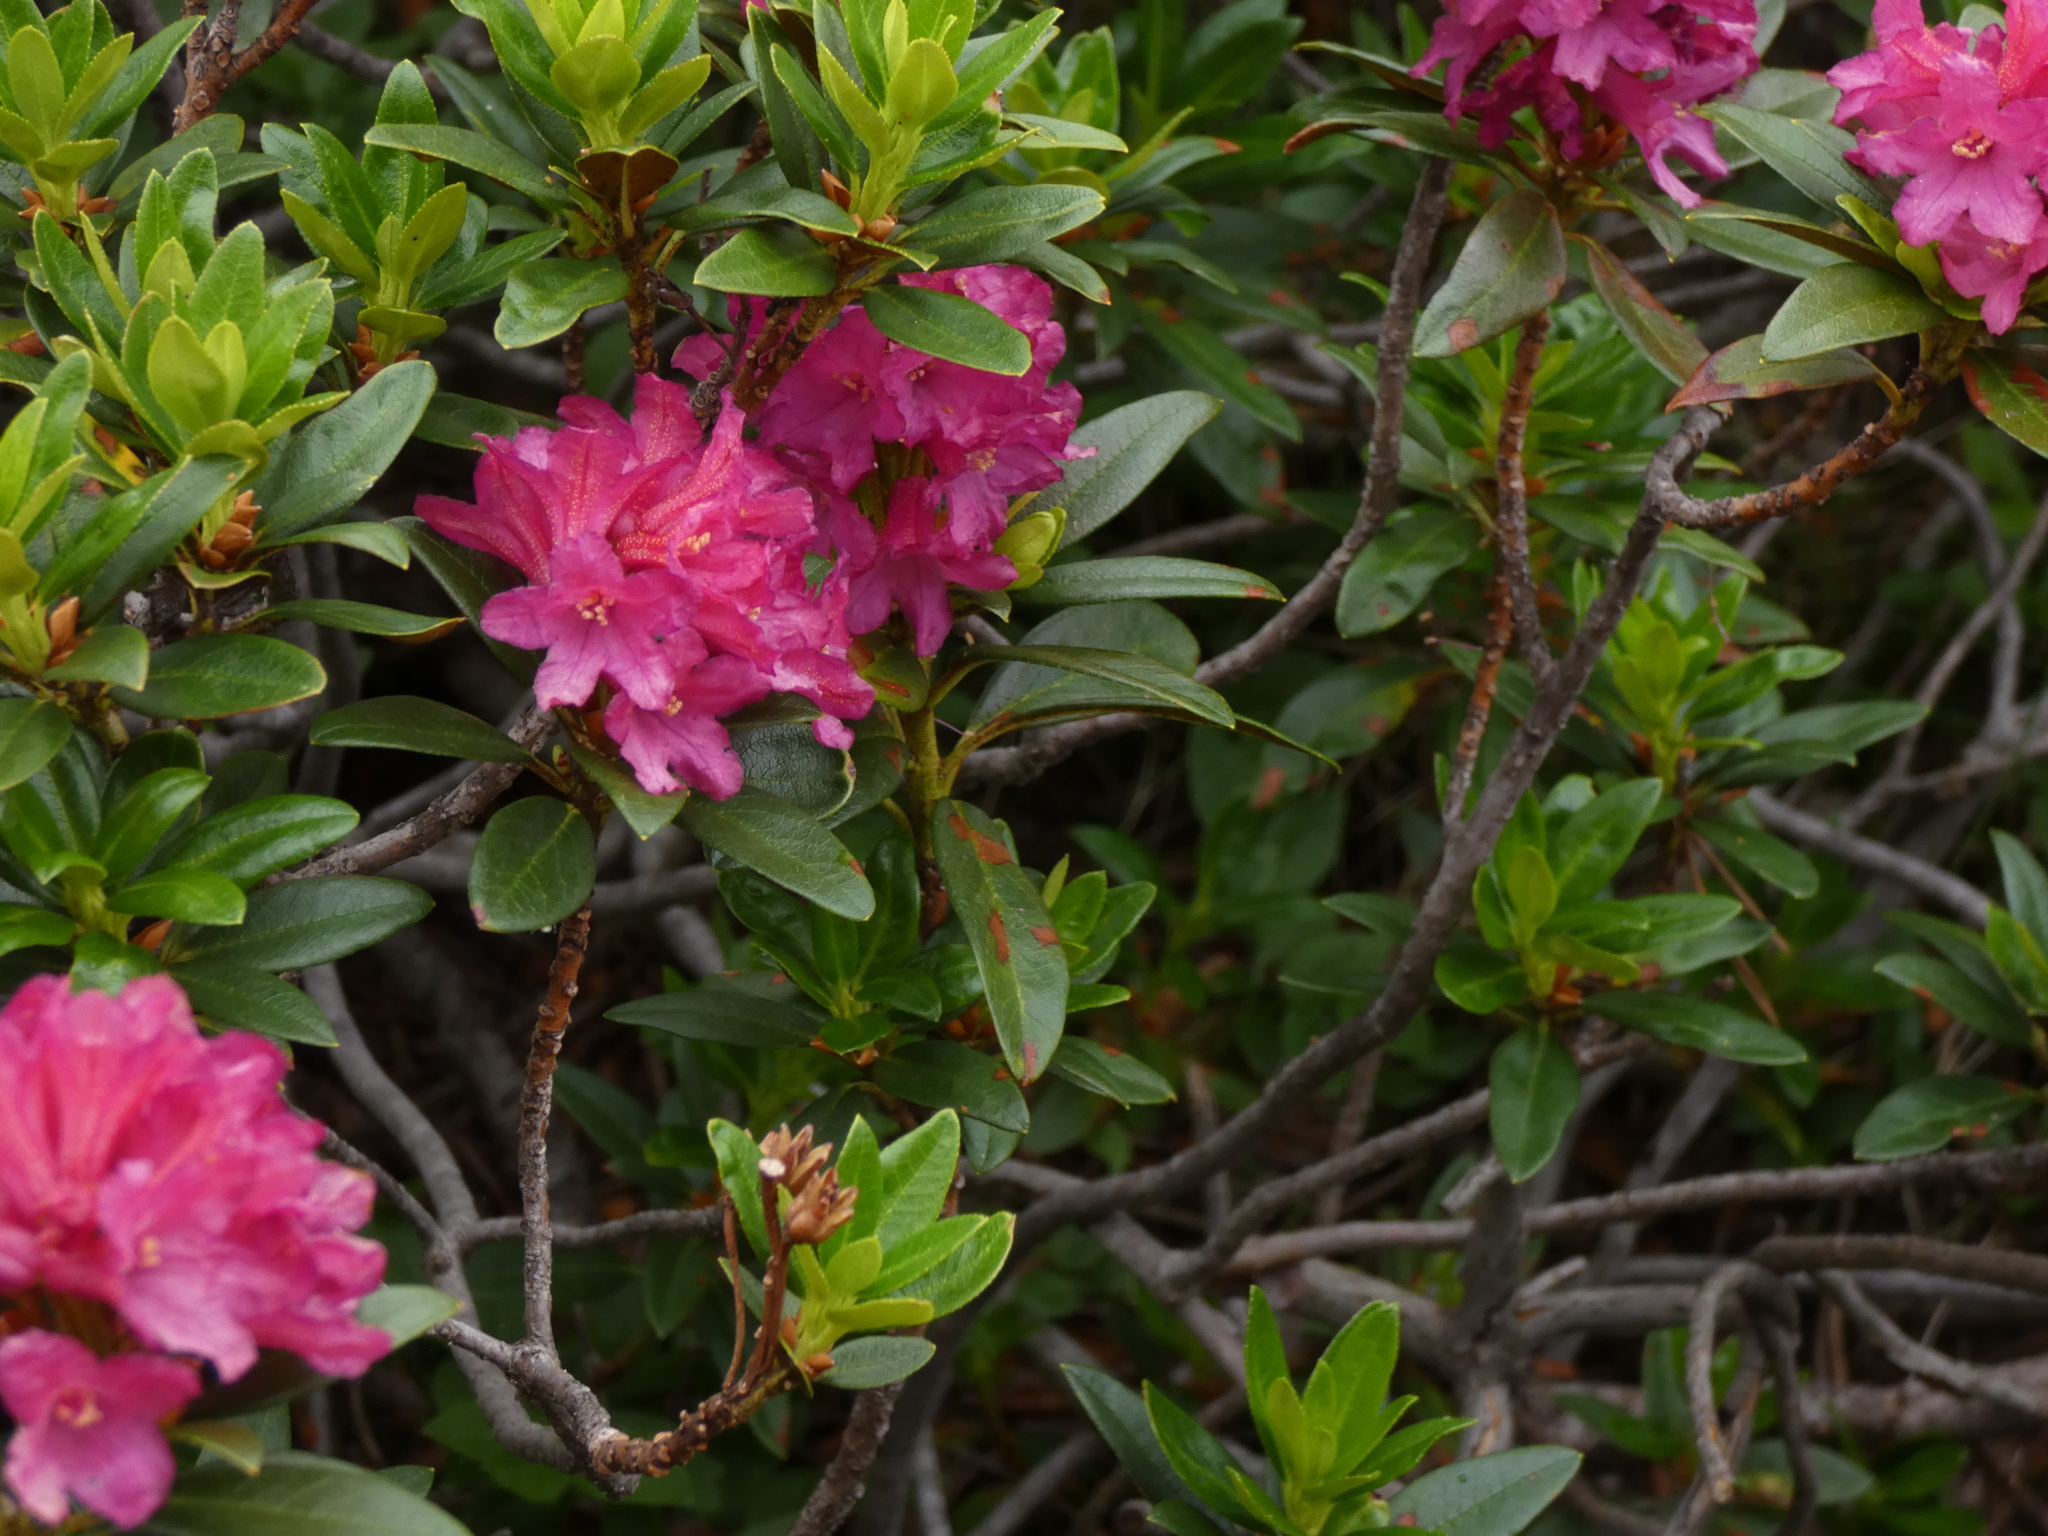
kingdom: Plantae
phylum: Tracheophyta
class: Magnoliopsida
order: Ericales
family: Ericaceae
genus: Rhododendron
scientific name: Rhododendron ferrugineum
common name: Alpenrose
